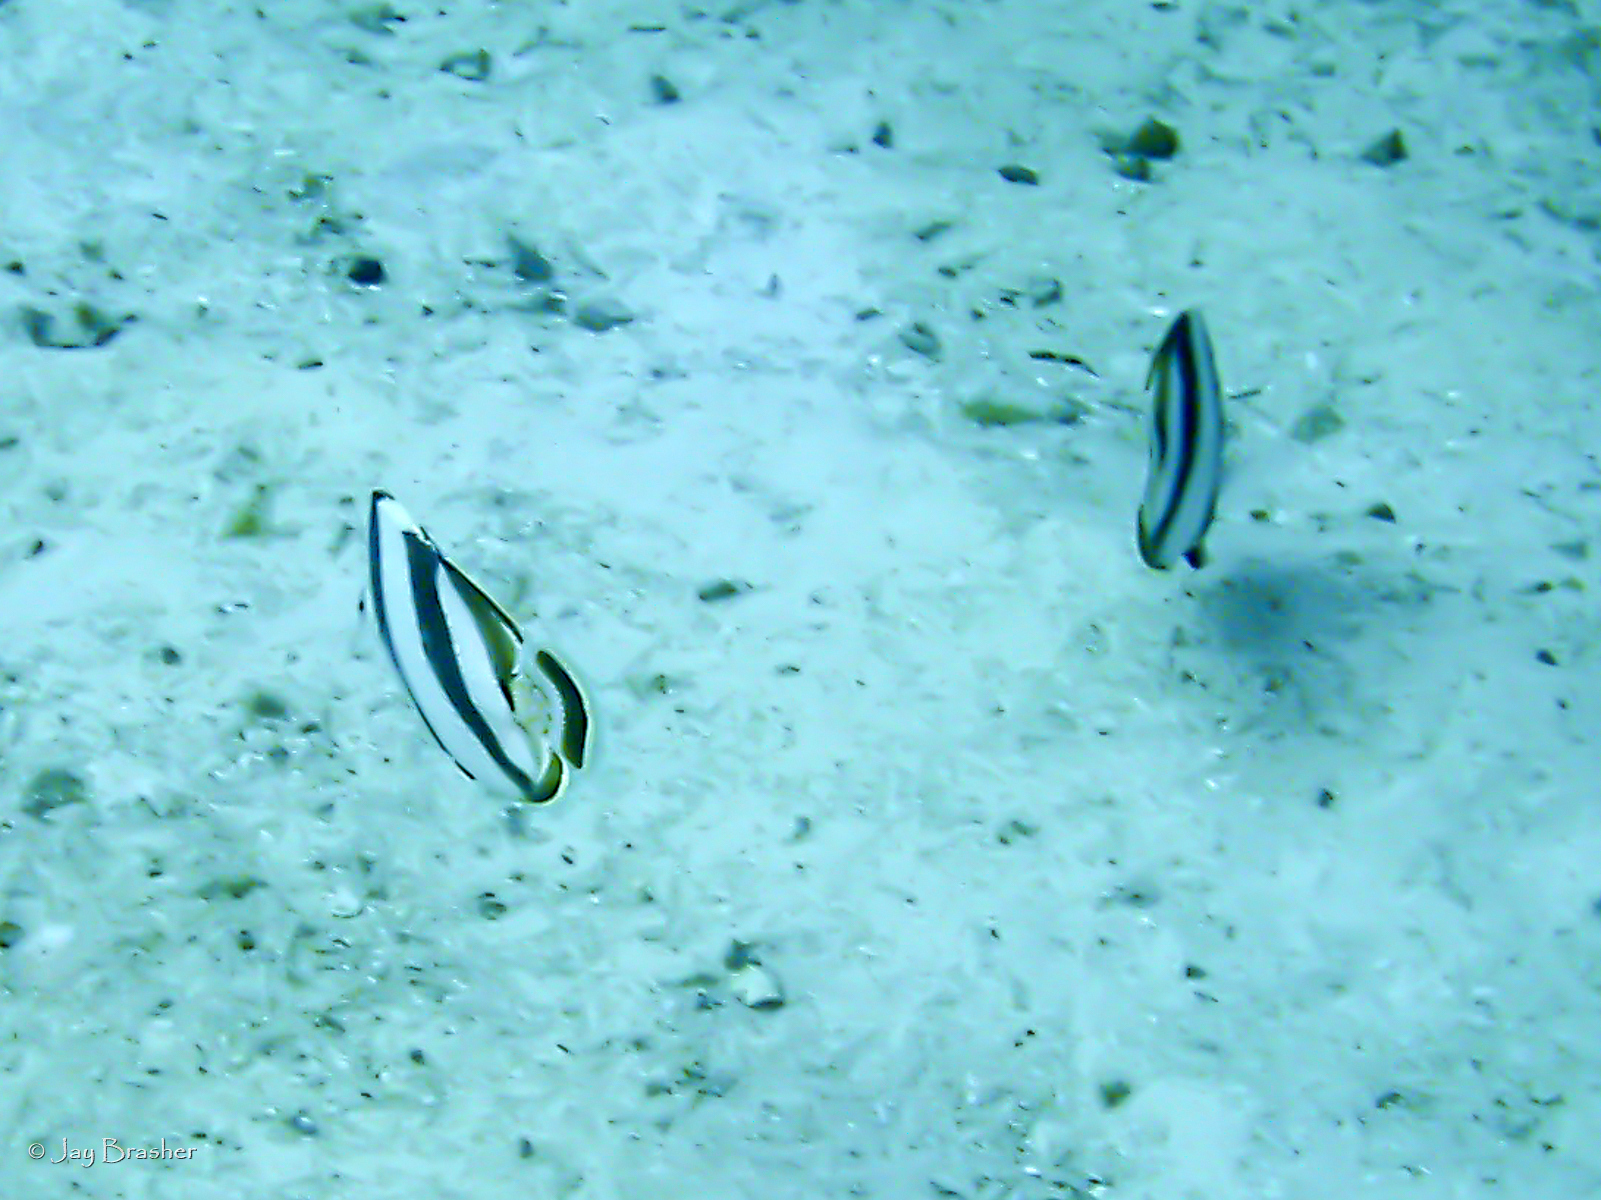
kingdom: Animalia
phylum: Chordata
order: Perciformes
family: Chaetodontidae
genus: Chaetodon
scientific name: Chaetodon striatus
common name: Banded butterflyfish
